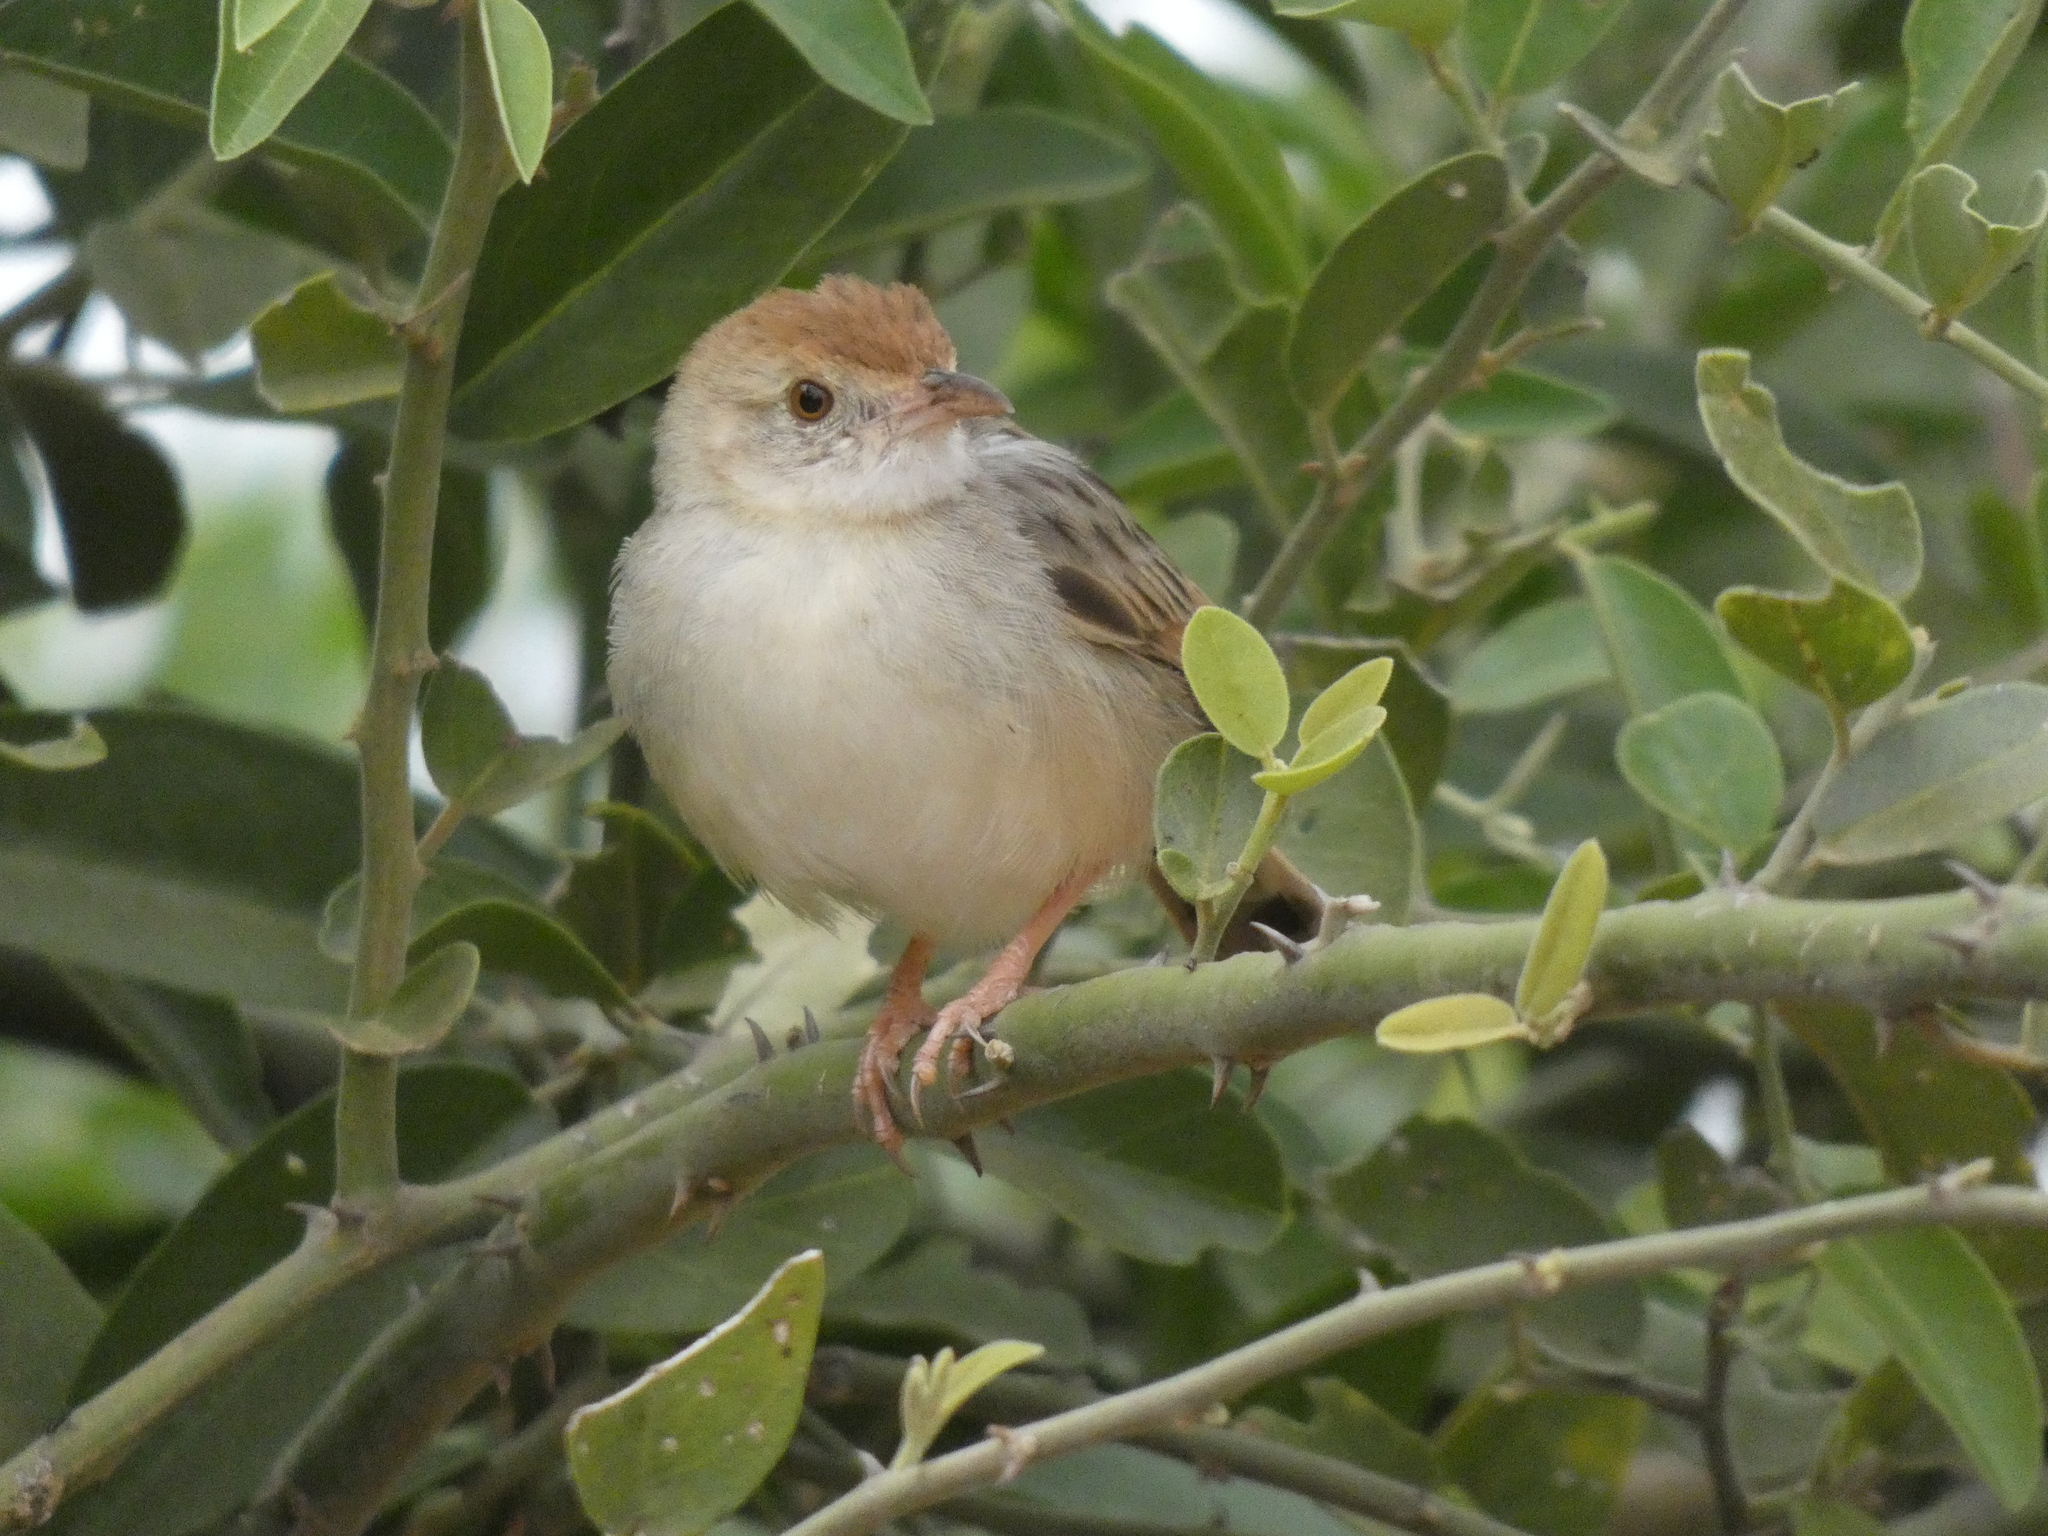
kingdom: Animalia
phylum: Chordata
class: Aves
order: Passeriformes
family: Cisticolidae
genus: Cisticola
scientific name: Cisticola chiniana
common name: Rattling cisticola
